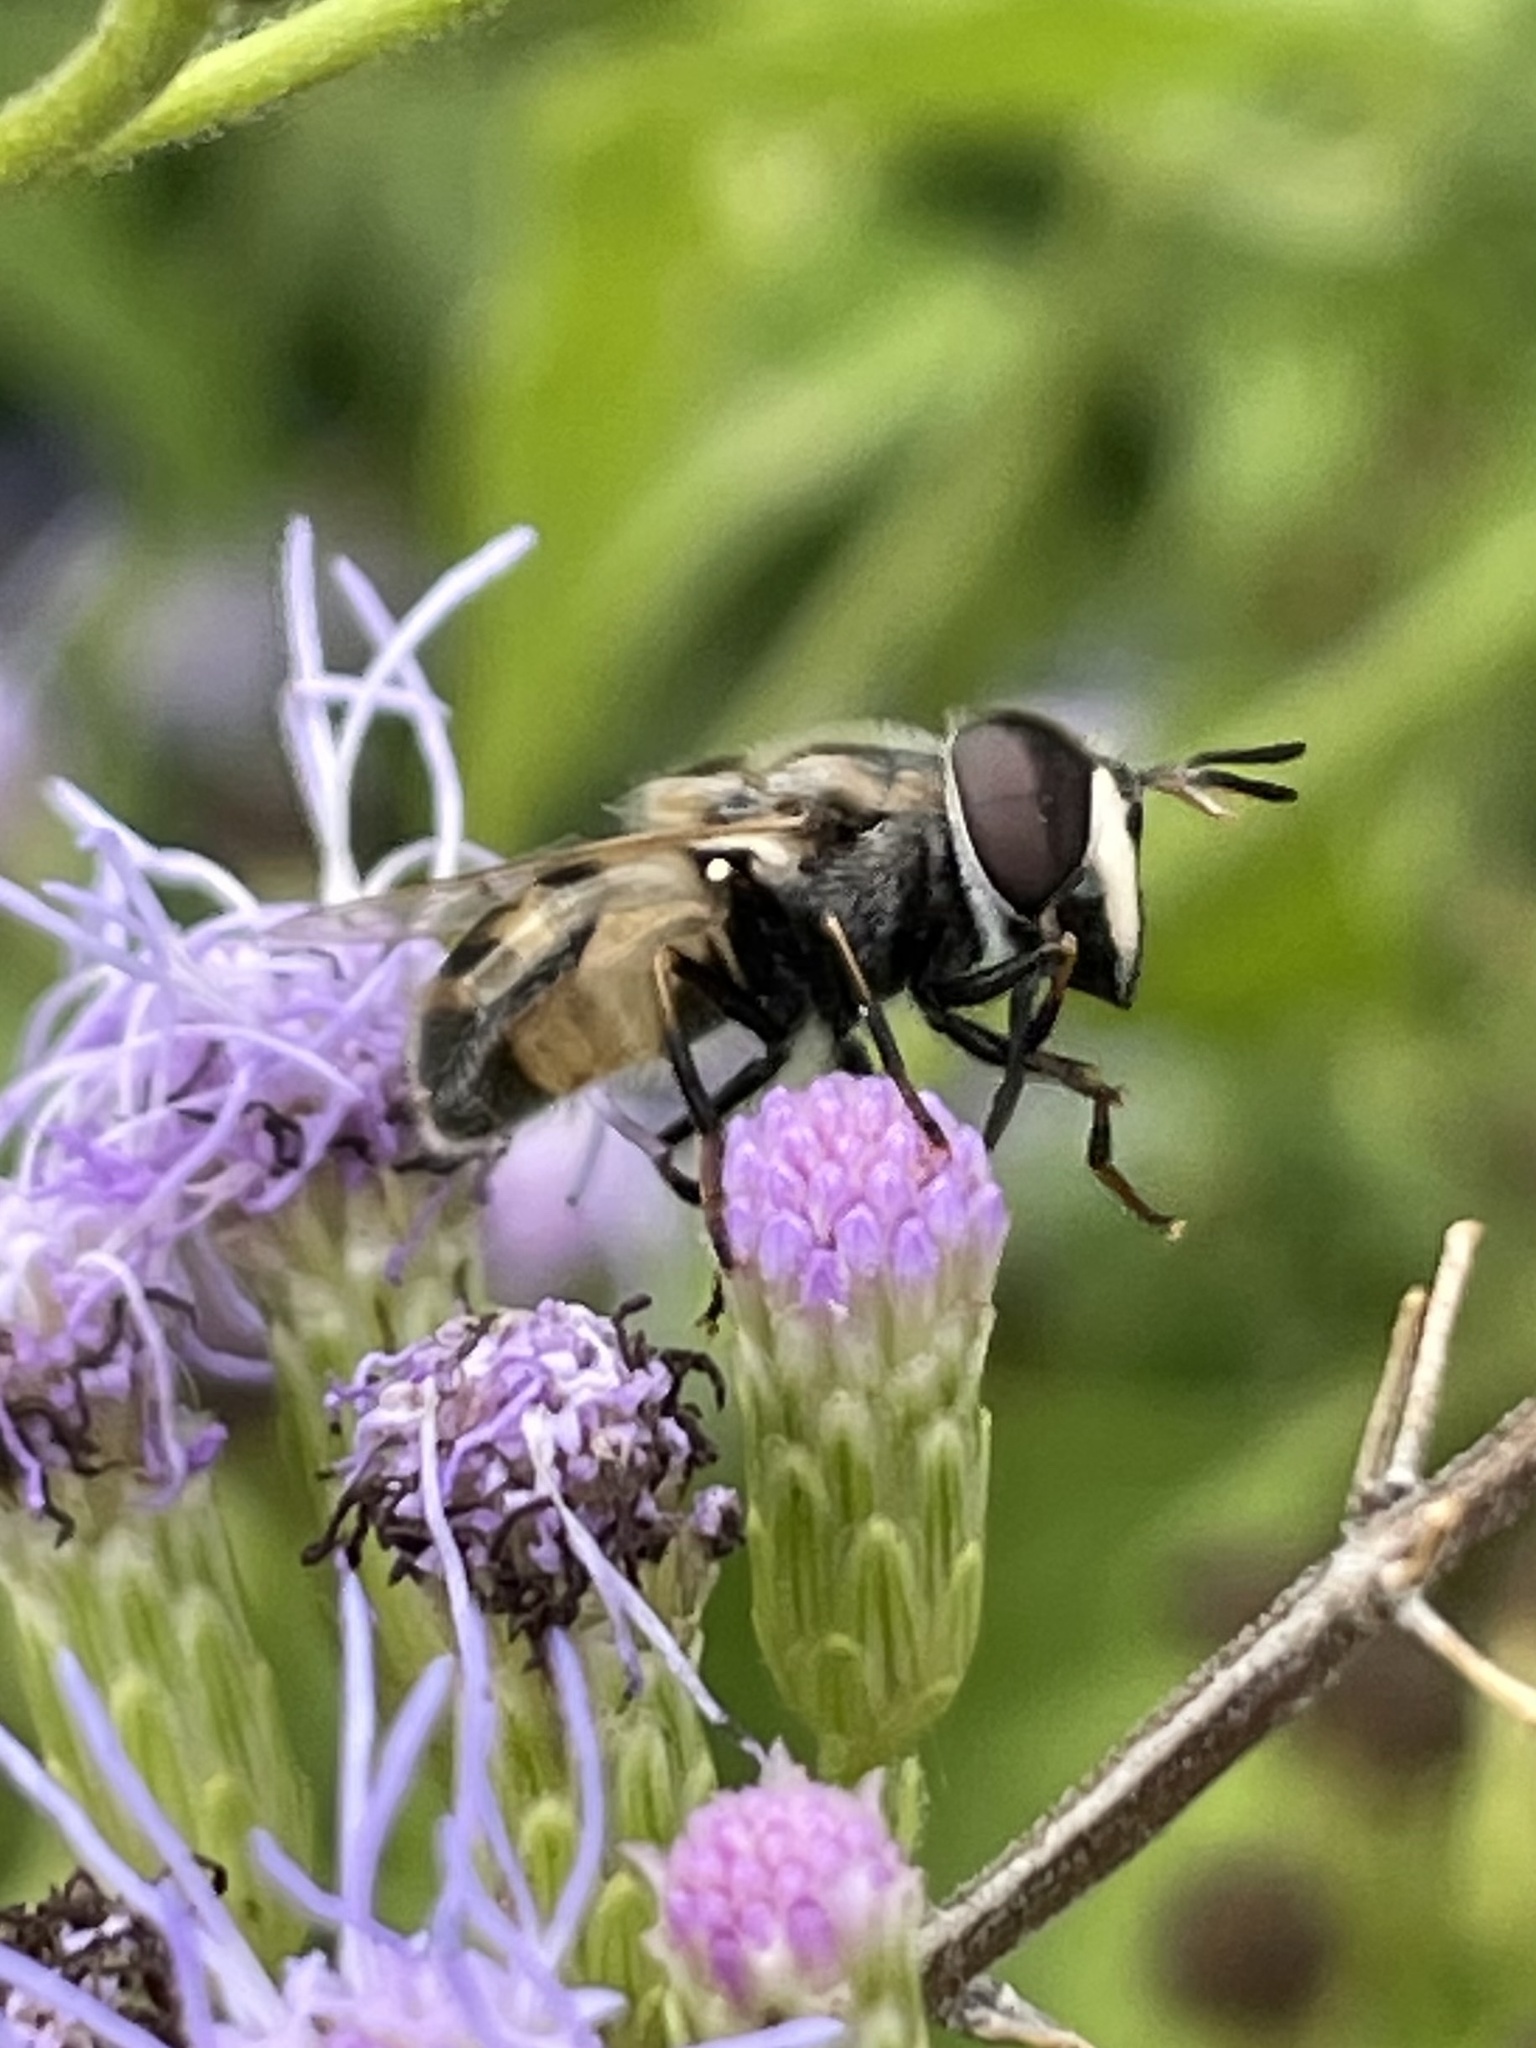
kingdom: Animalia
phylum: Arthropoda
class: Insecta
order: Diptera
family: Syrphidae
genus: Copestylum
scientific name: Copestylum marginatum
